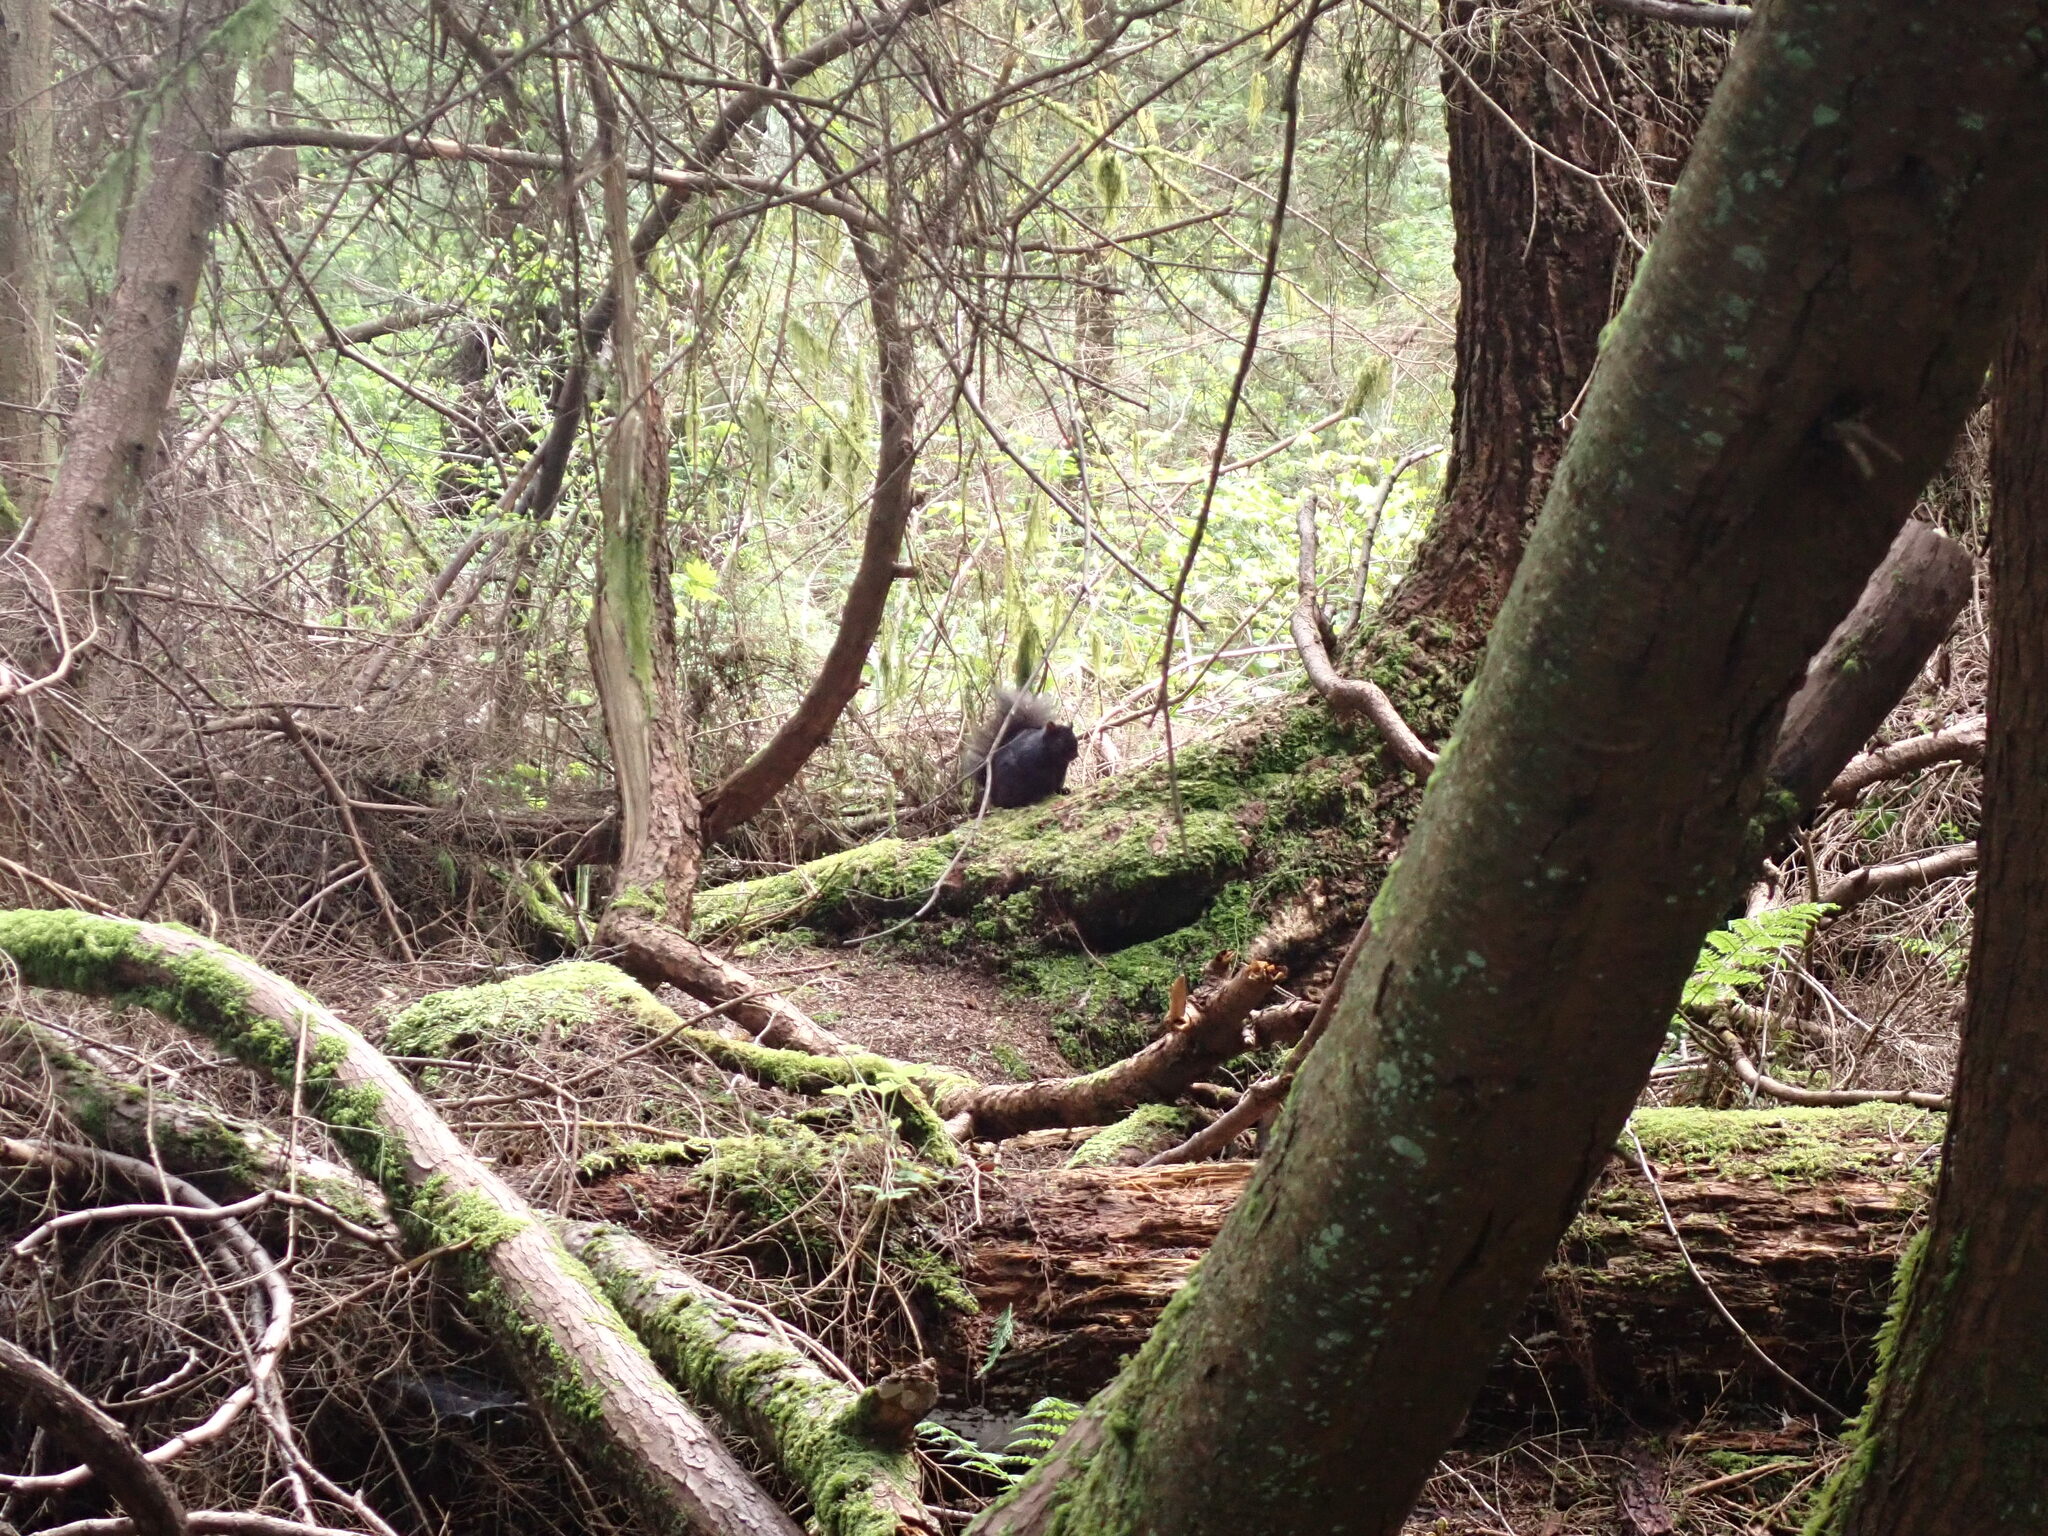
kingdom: Animalia
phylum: Chordata
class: Mammalia
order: Rodentia
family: Sciuridae
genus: Sciurus
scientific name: Sciurus carolinensis
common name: Eastern gray squirrel
